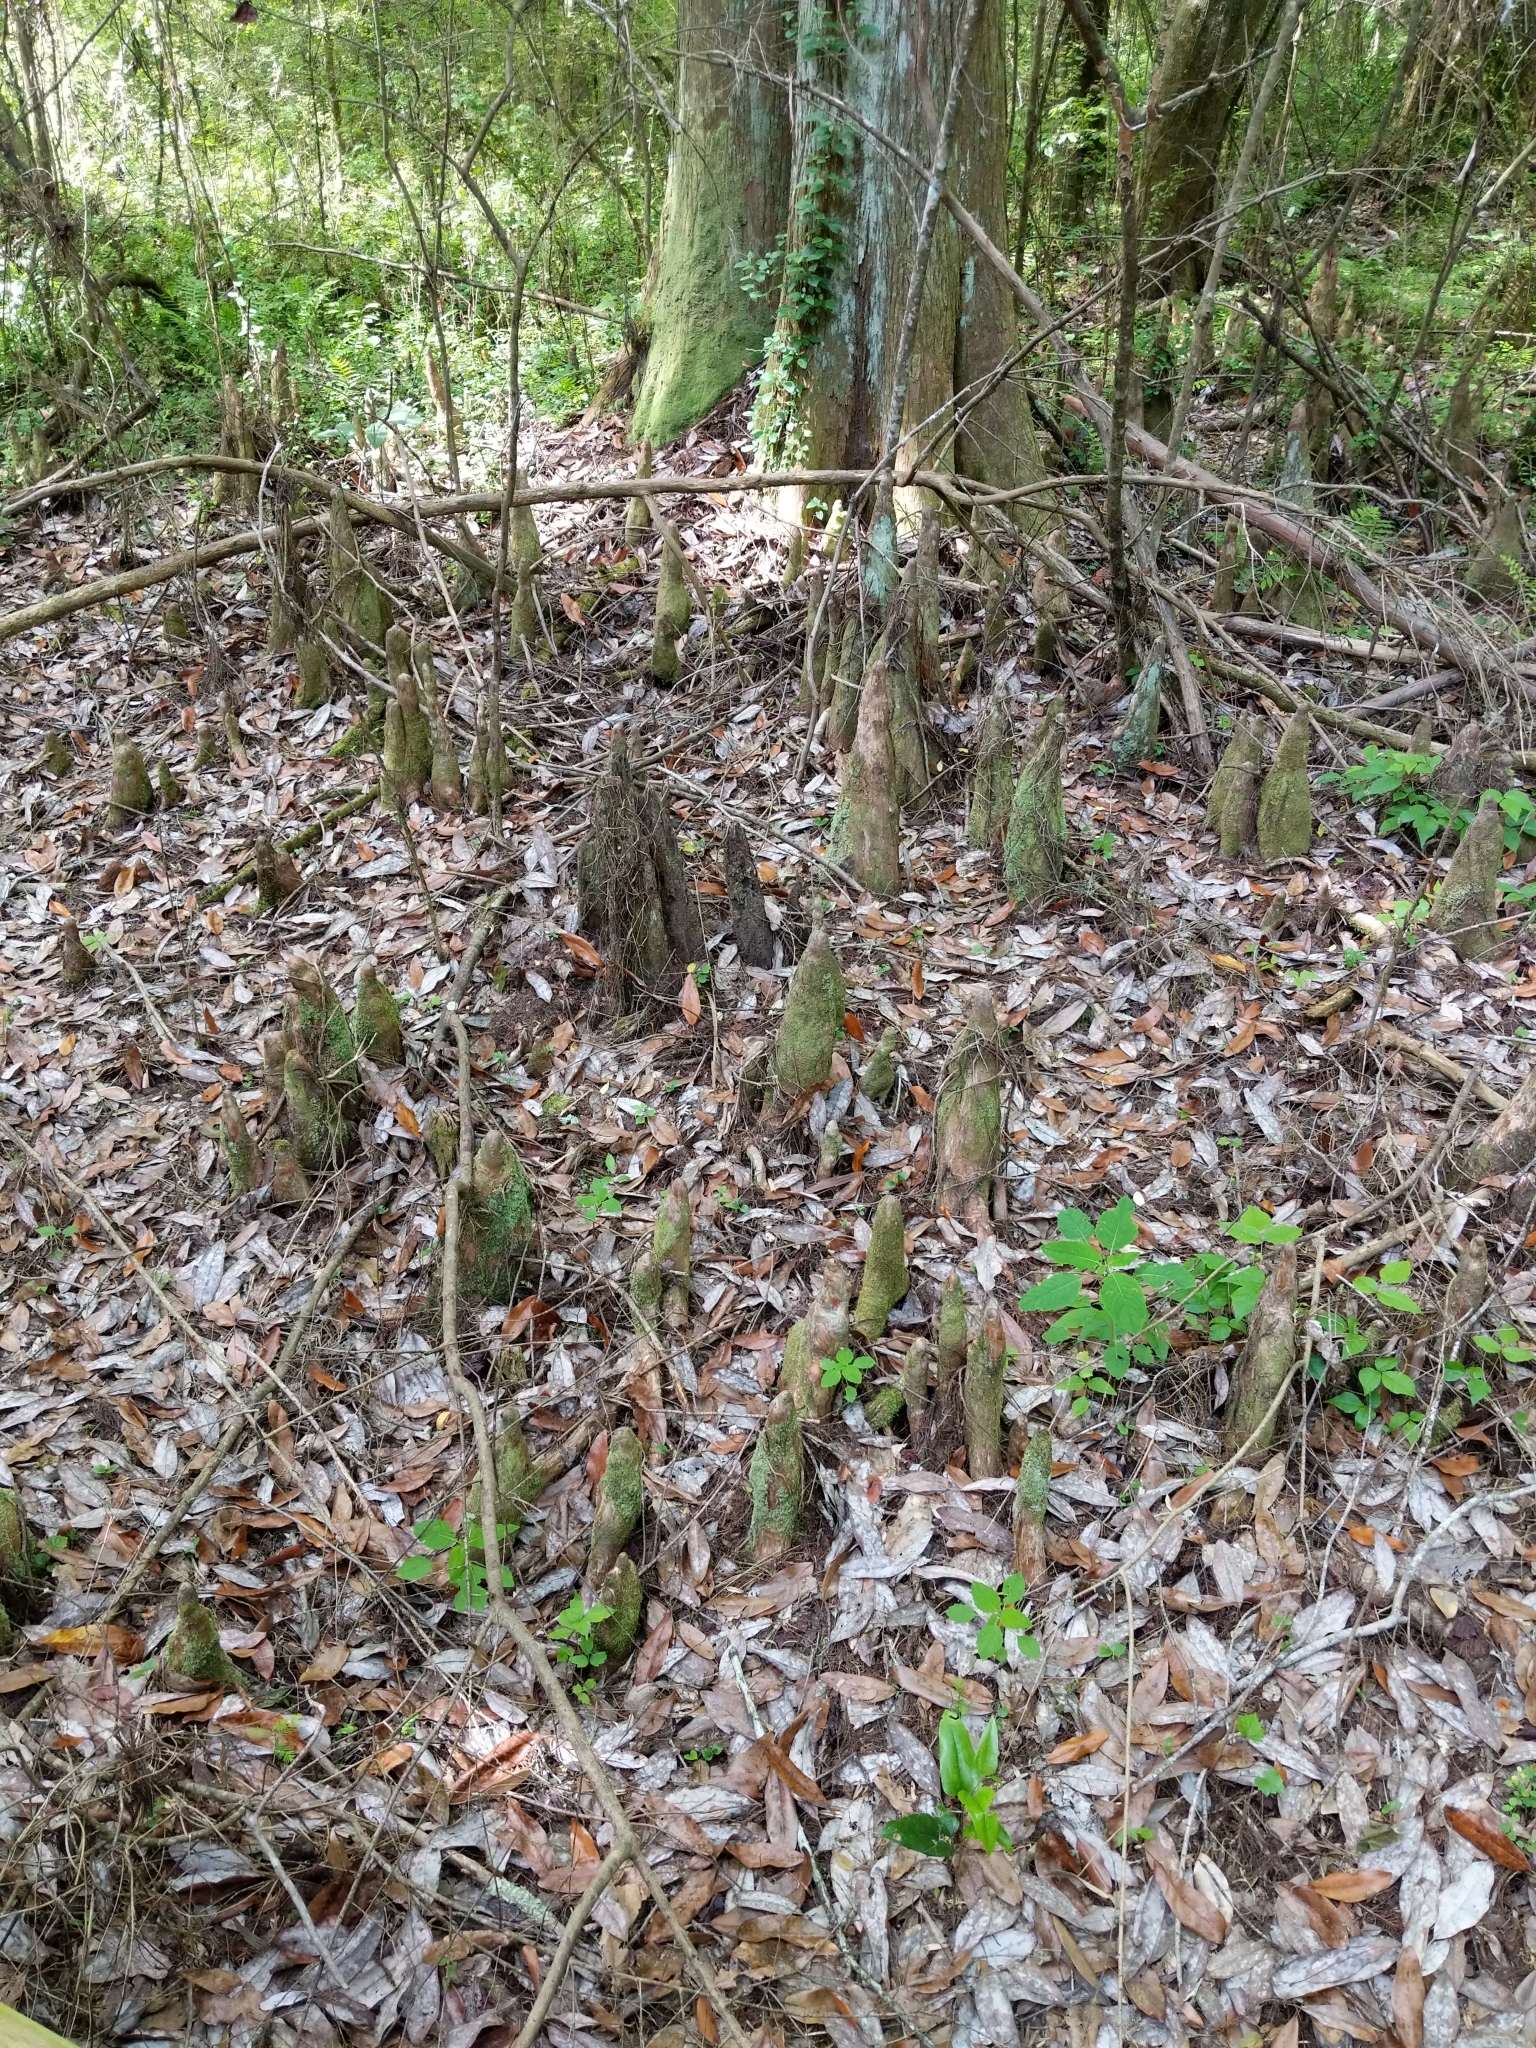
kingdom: Plantae
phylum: Tracheophyta
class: Pinopsida
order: Pinales
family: Cupressaceae
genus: Taxodium
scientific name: Taxodium distichum
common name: Bald cypress
